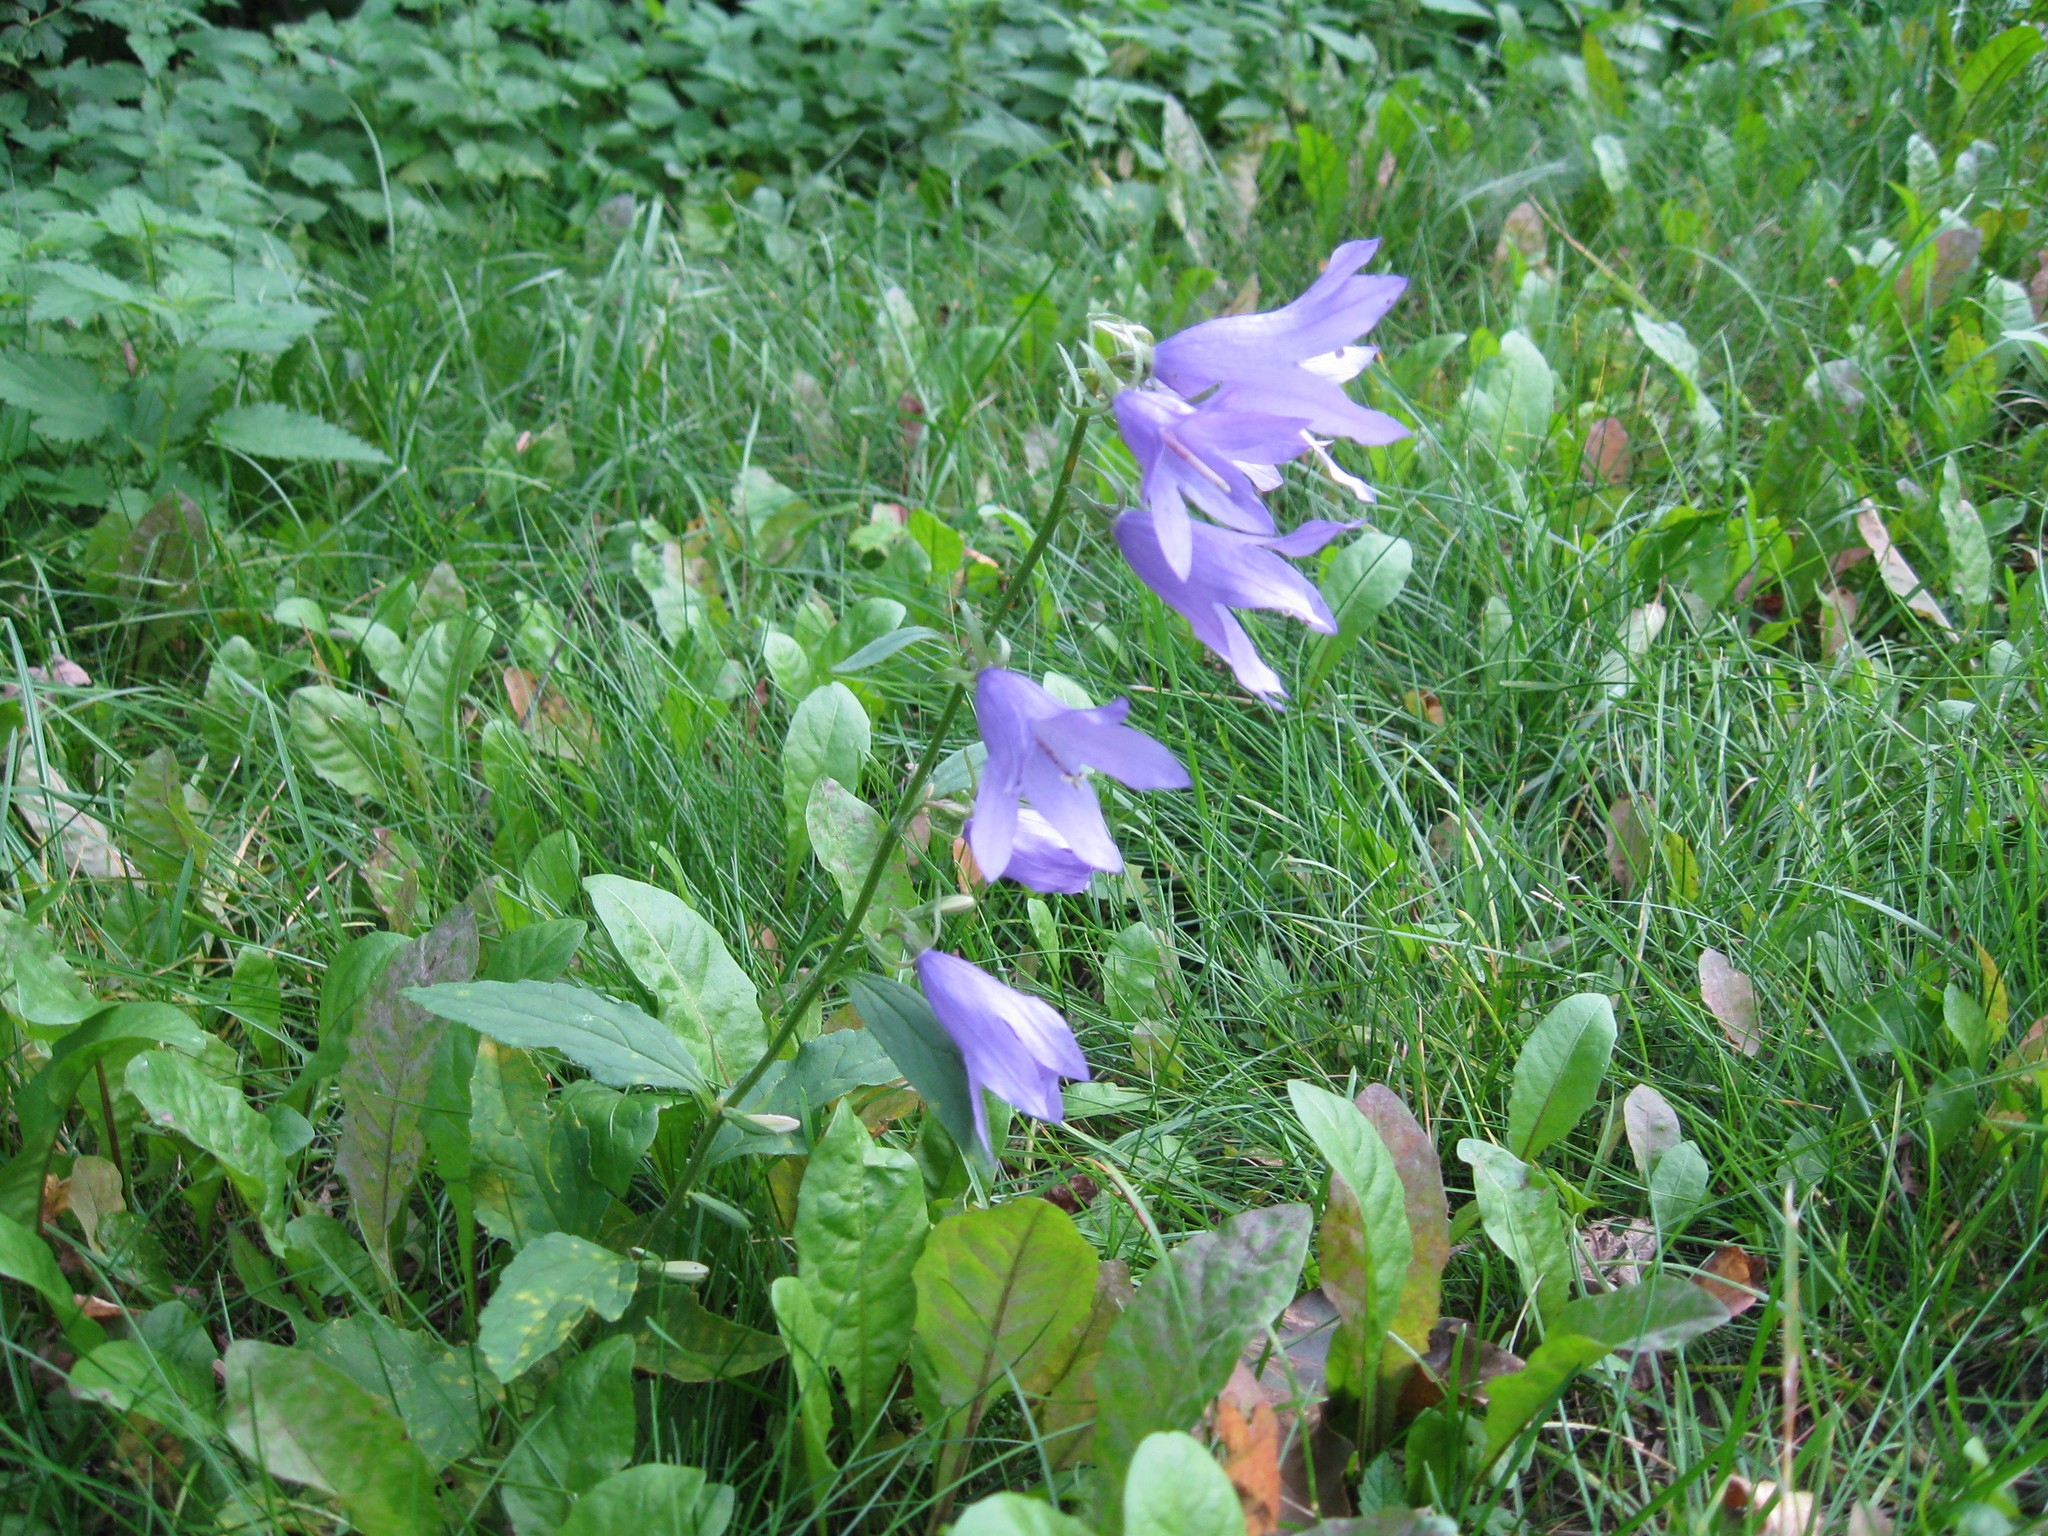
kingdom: Plantae
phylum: Tracheophyta
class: Magnoliopsida
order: Asterales
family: Campanulaceae
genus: Campanula
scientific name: Campanula rapunculoides
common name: Creeping bellflower
